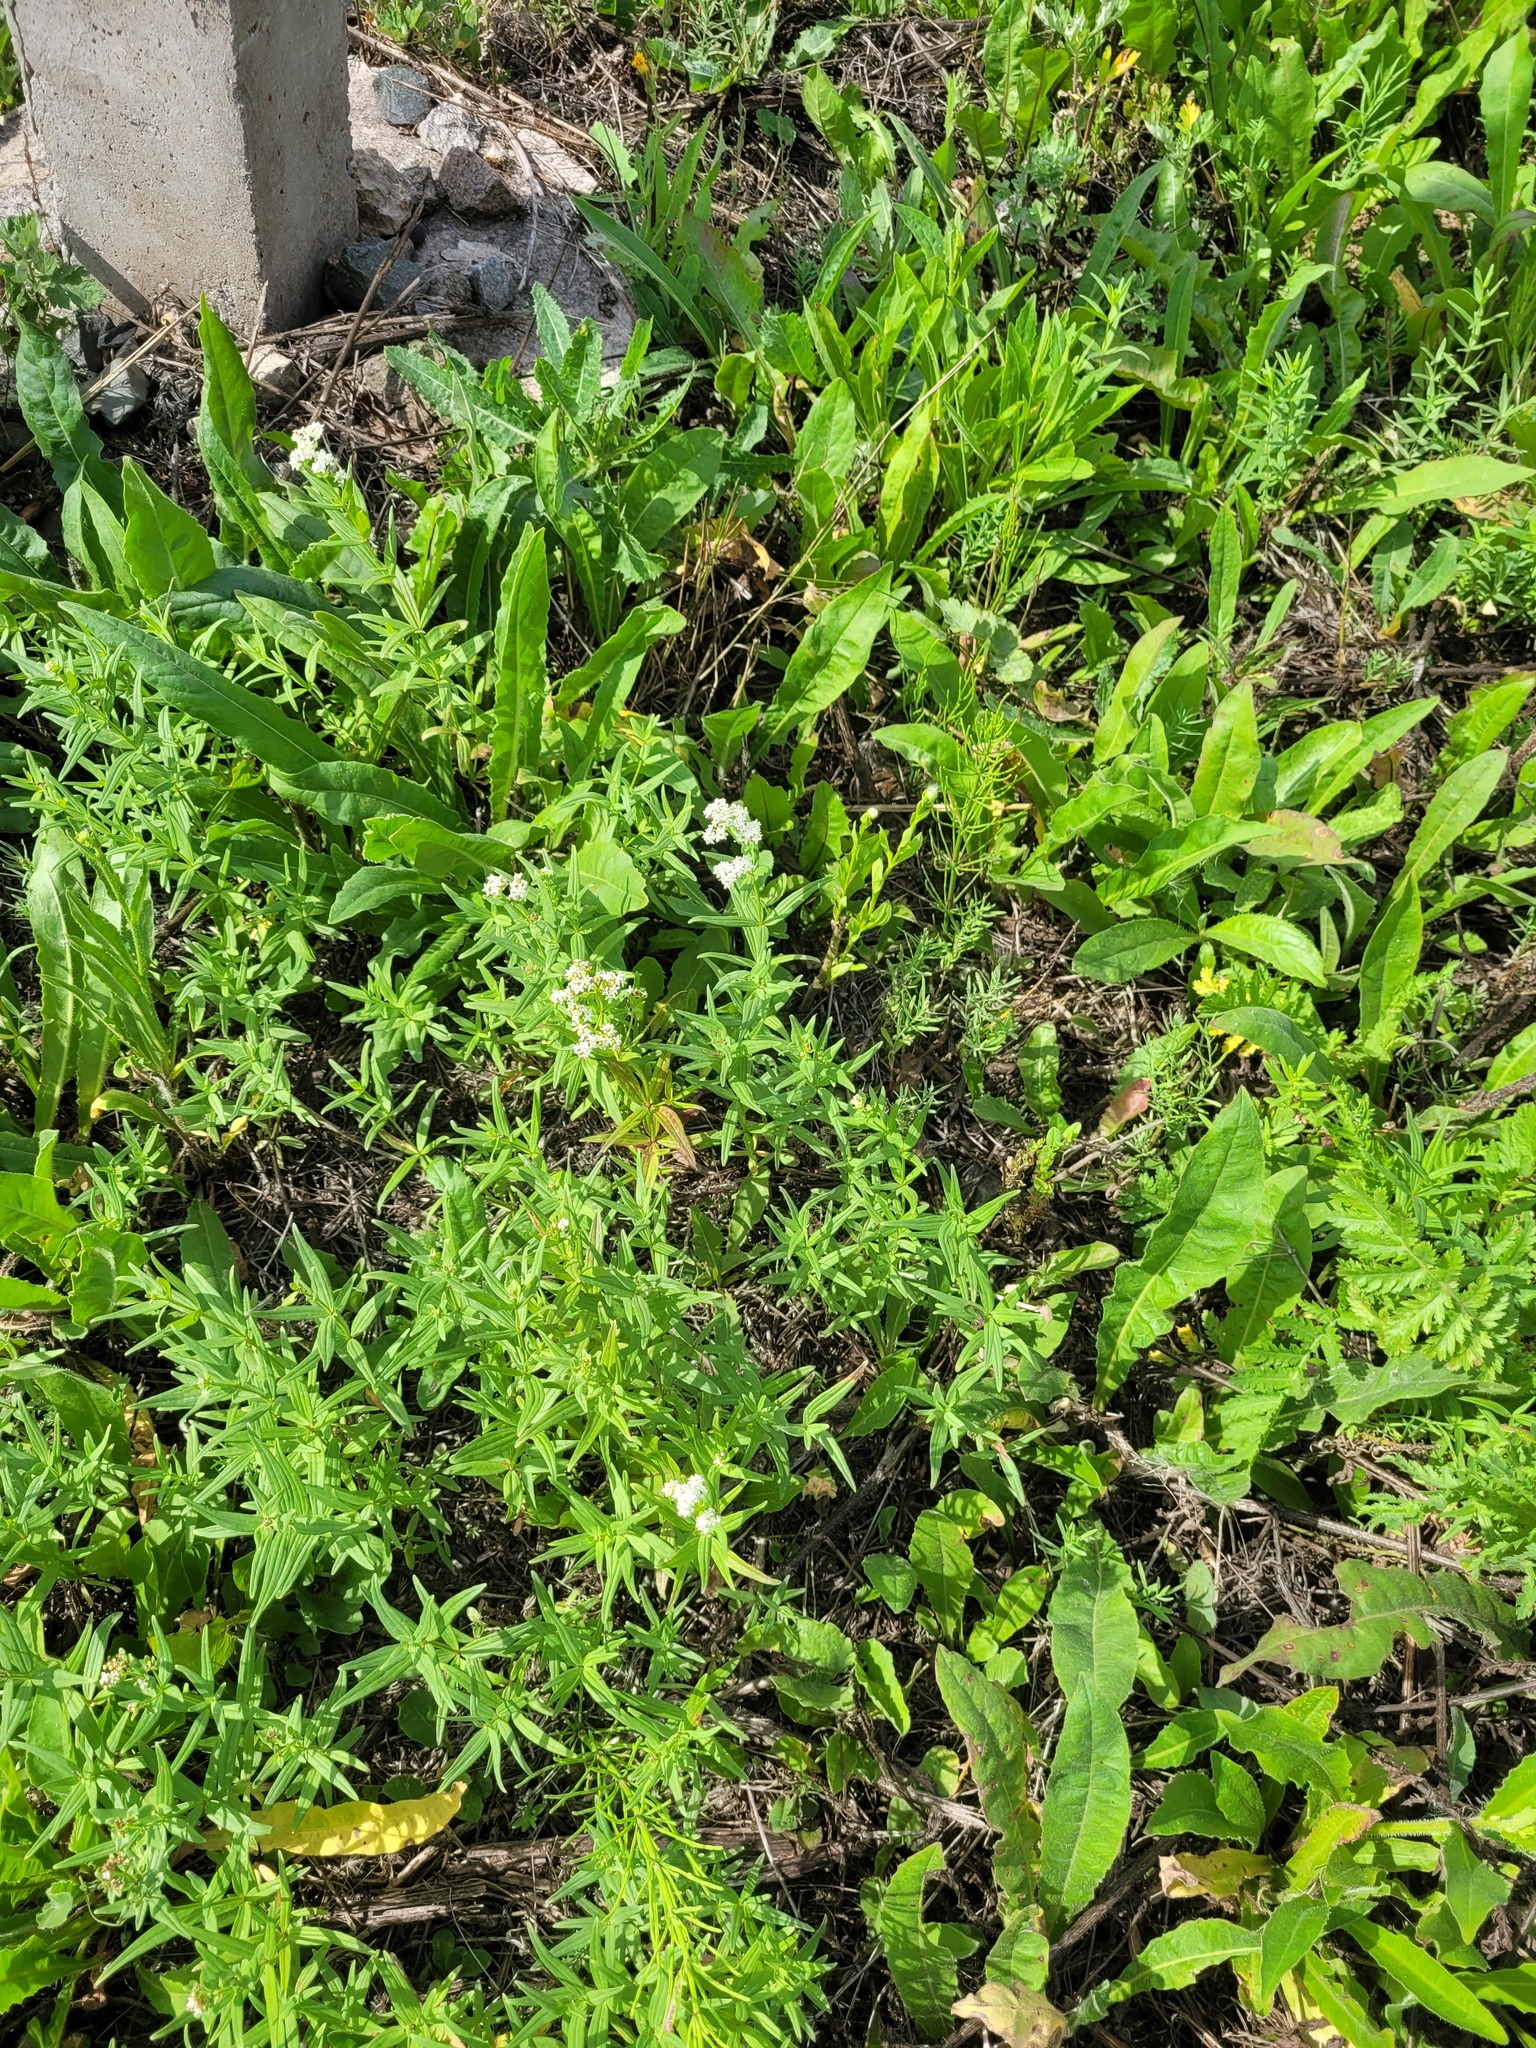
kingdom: Plantae
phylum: Tracheophyta
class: Magnoliopsida
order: Gentianales
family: Rubiaceae
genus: Galium
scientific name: Galium boreale
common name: Northern bedstraw
